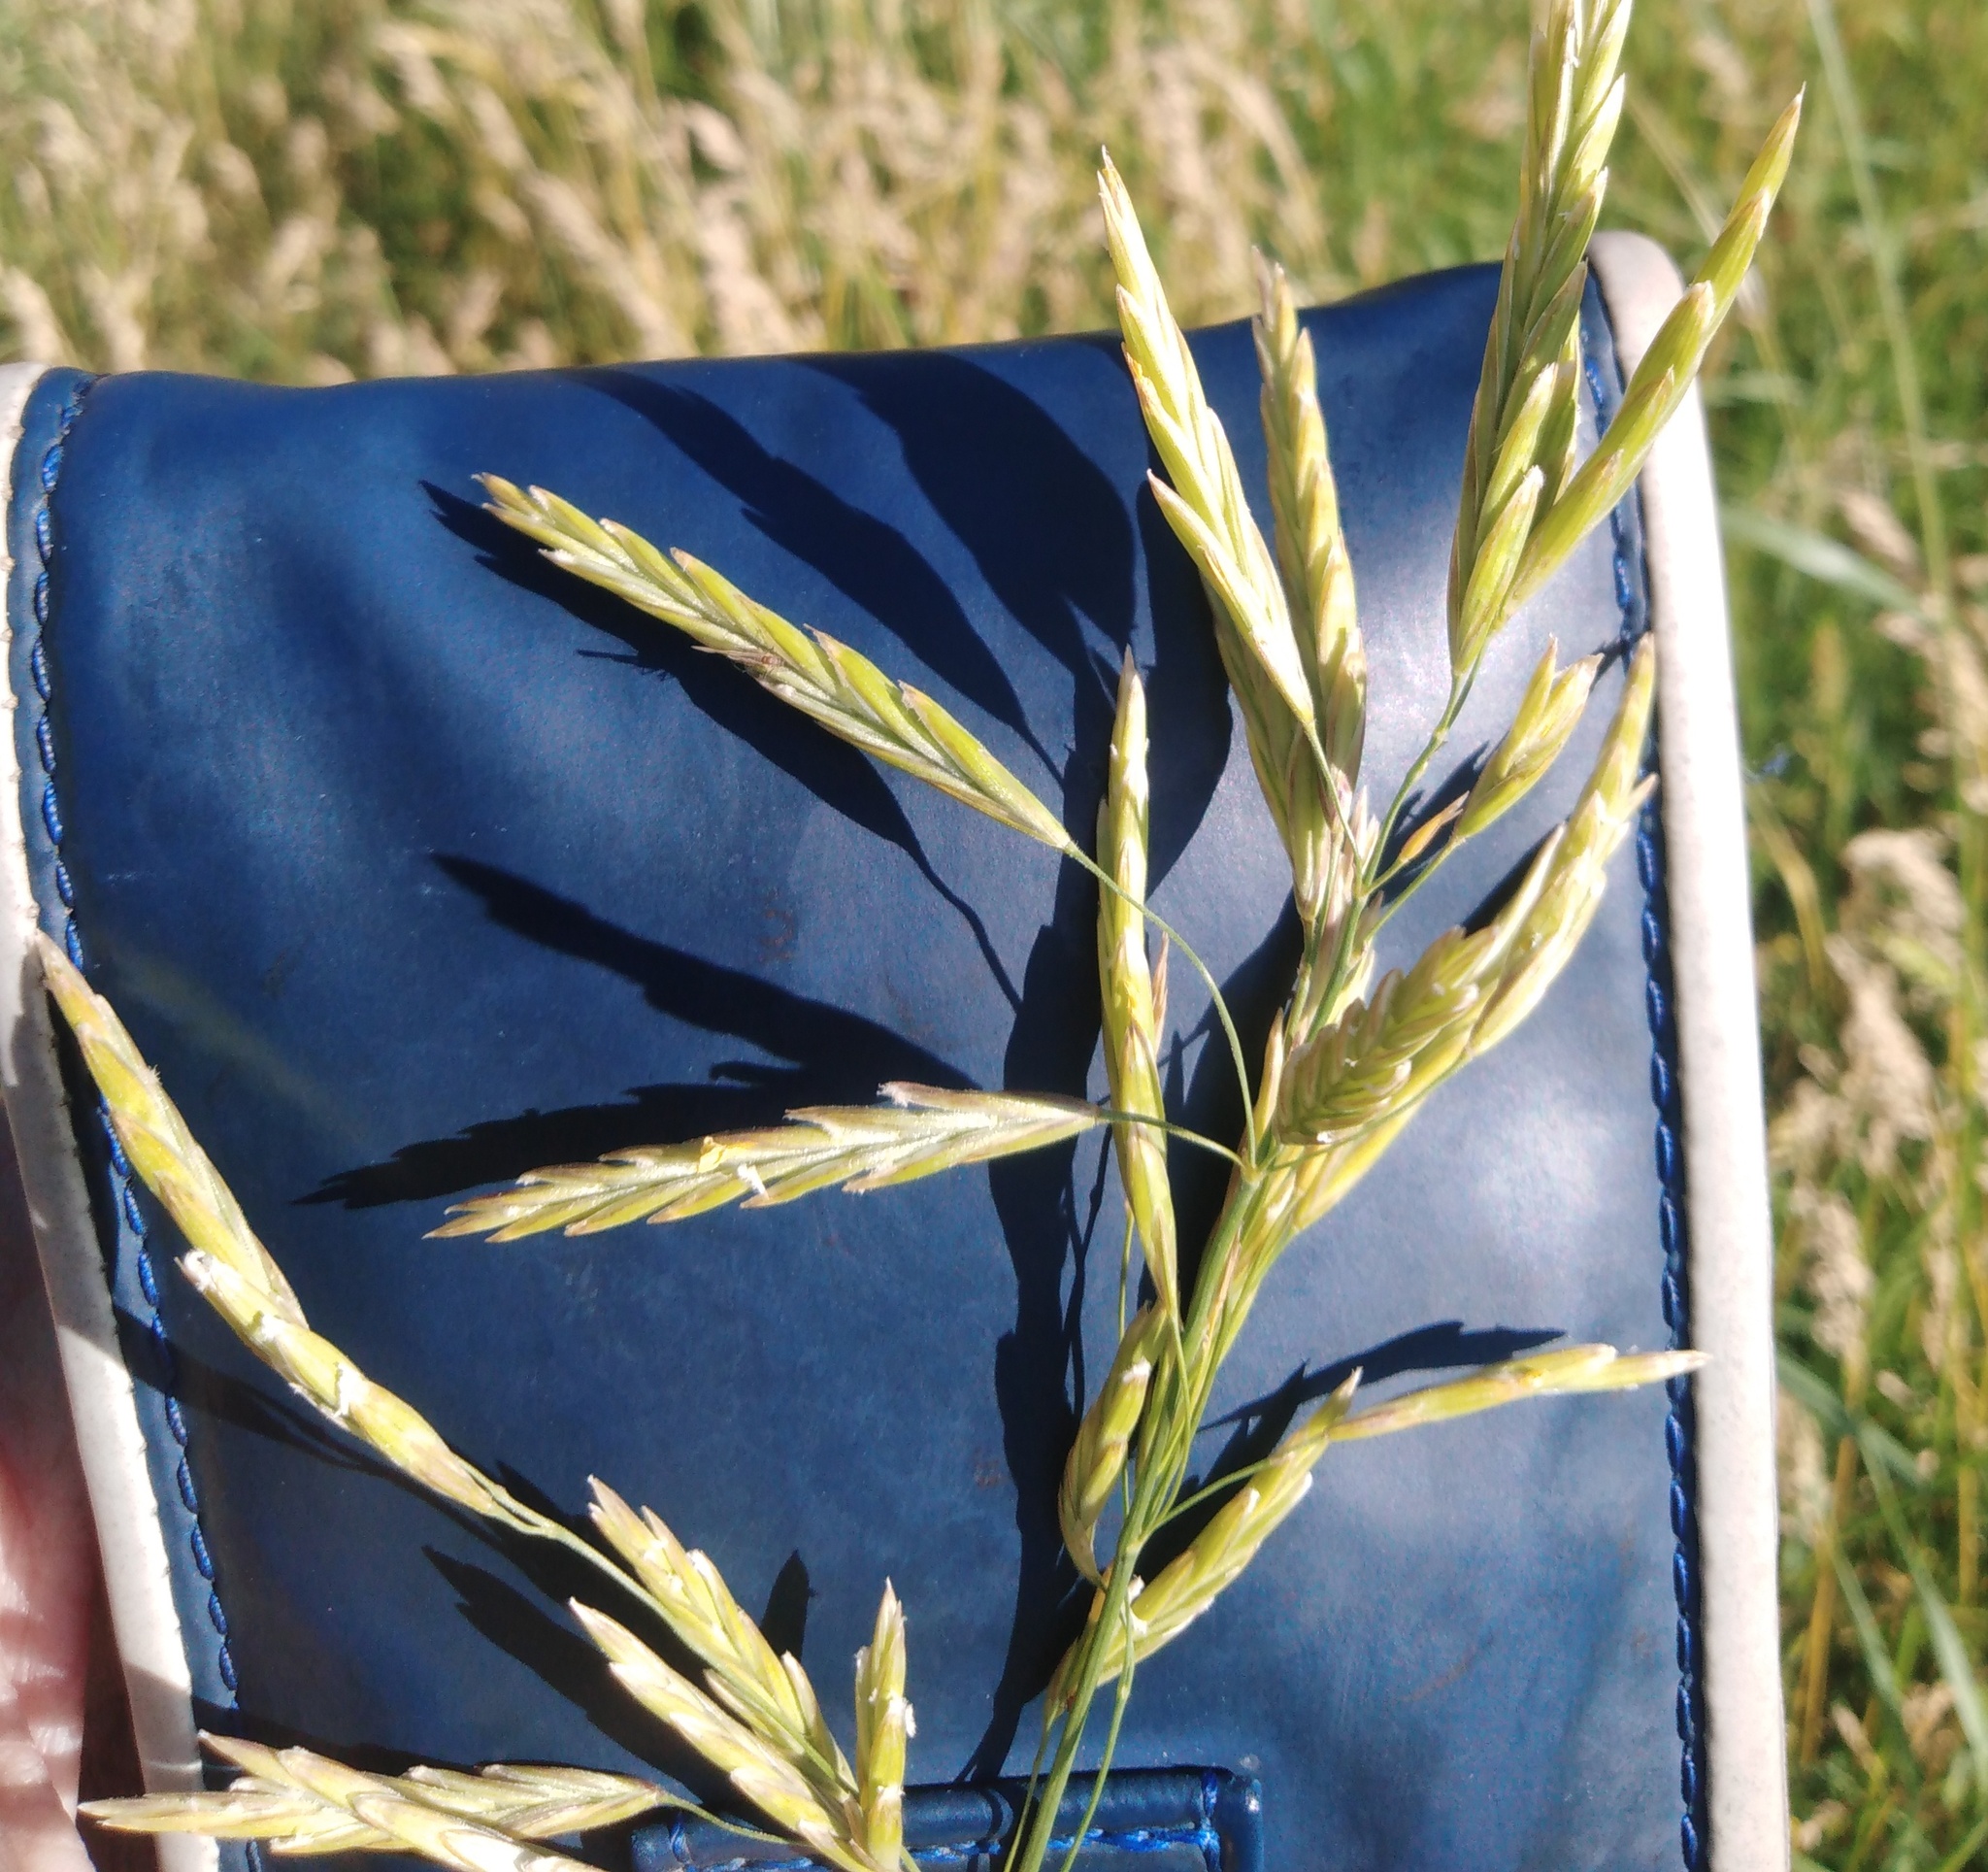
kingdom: Plantae
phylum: Tracheophyta
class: Liliopsida
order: Poales
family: Poaceae
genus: Bromus
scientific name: Bromus inermis
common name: Smooth brome
